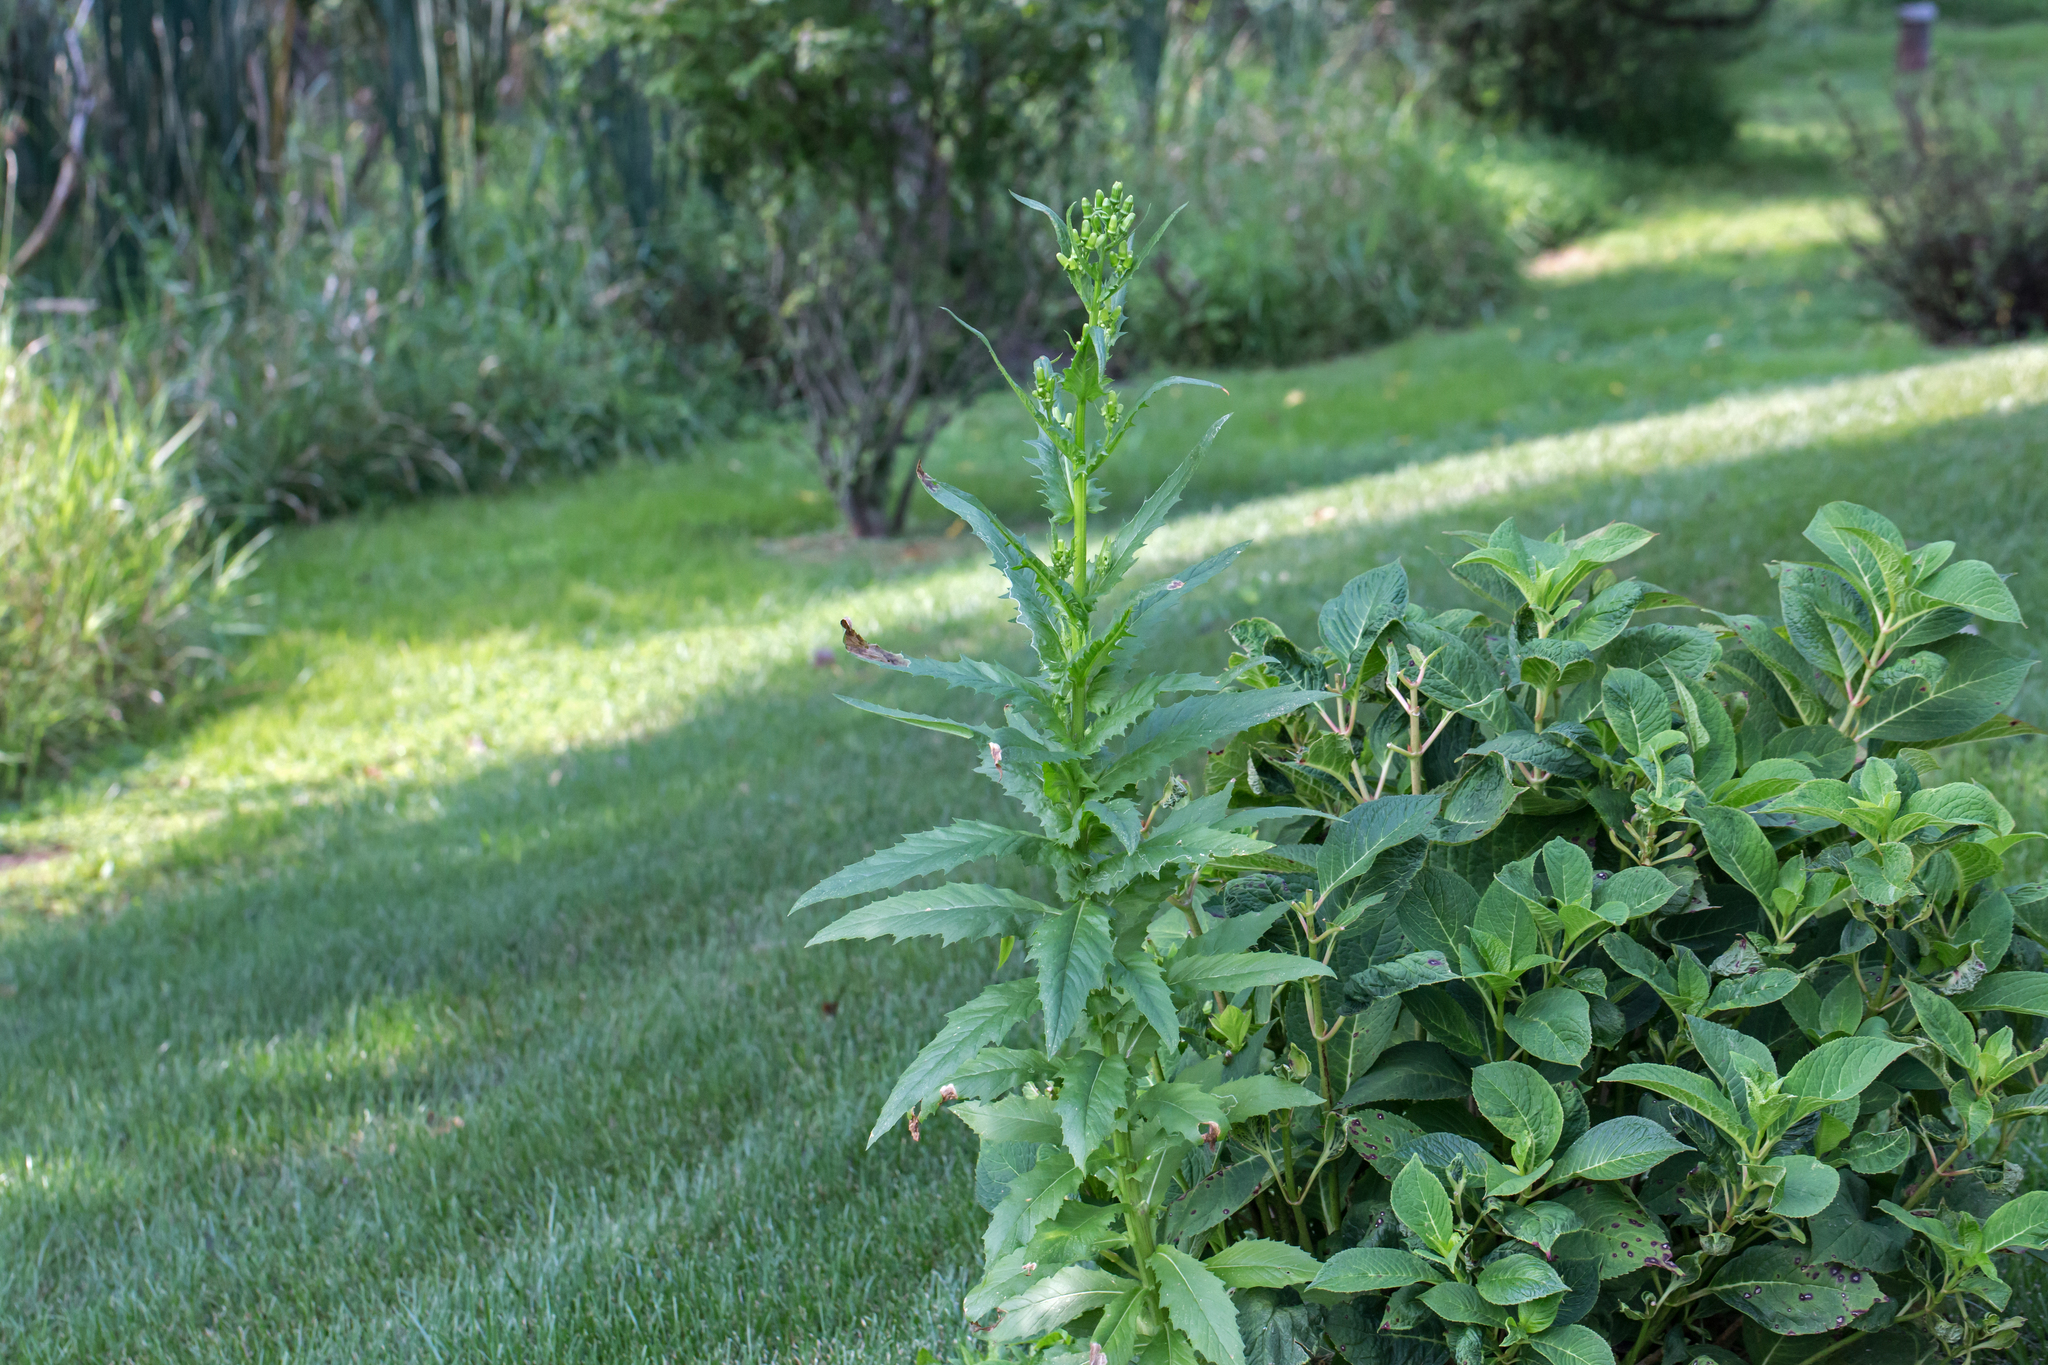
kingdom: Plantae
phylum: Tracheophyta
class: Magnoliopsida
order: Asterales
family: Asteraceae
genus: Erechtites
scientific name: Erechtites hieraciifolius
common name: American burnweed
